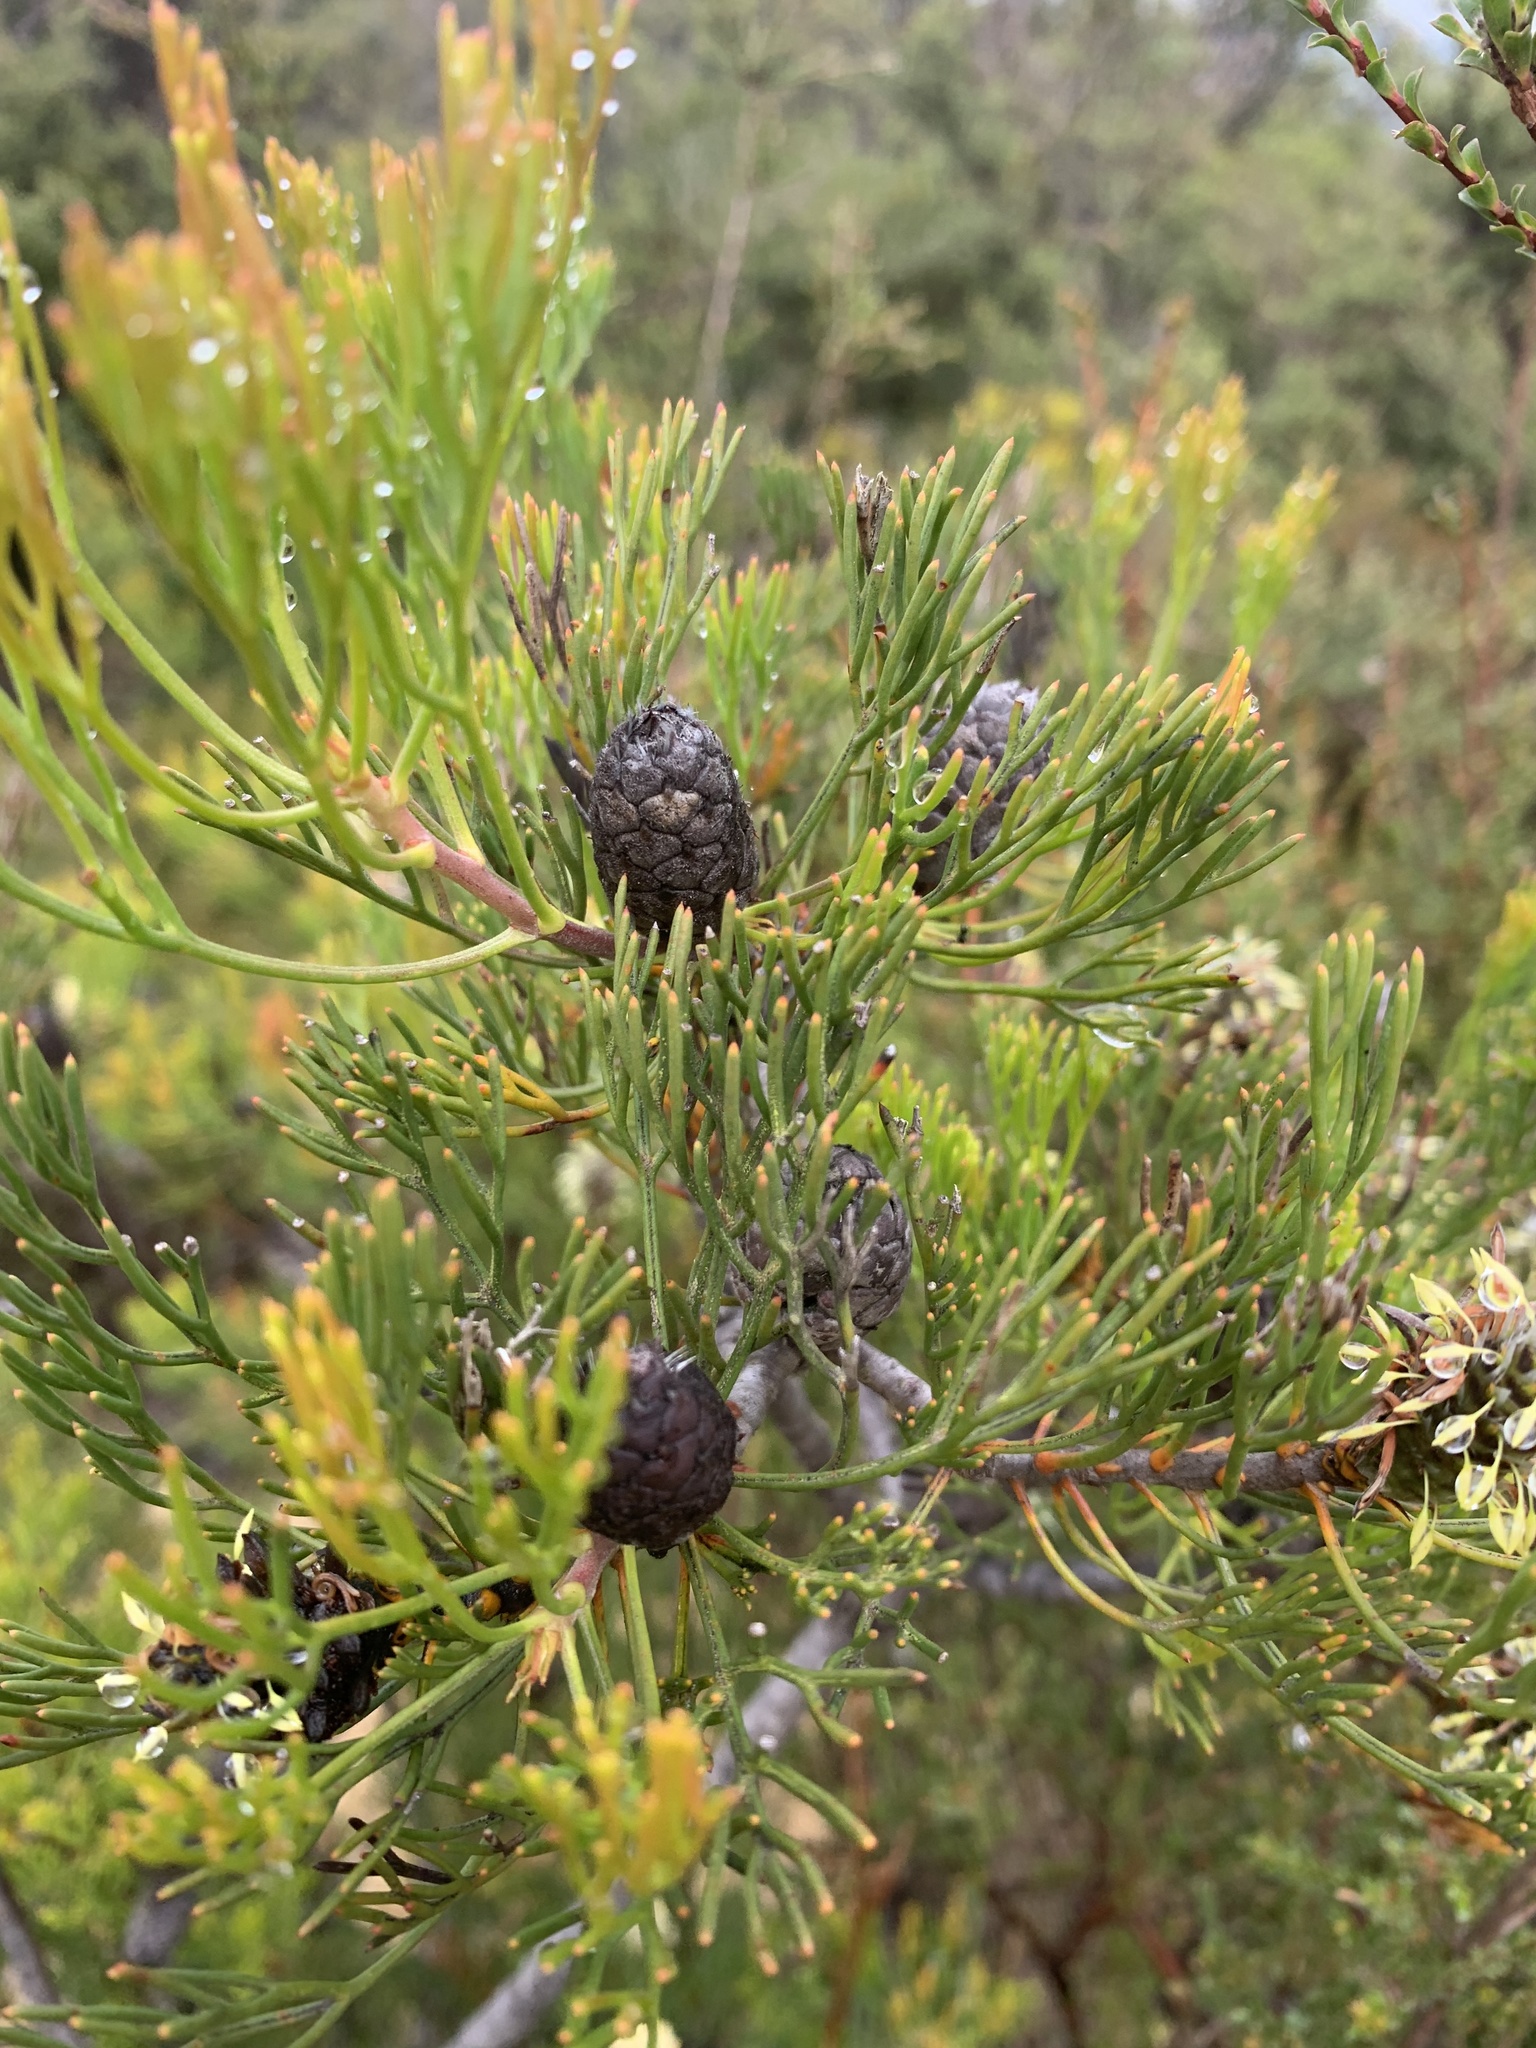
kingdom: Plantae
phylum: Tracheophyta
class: Magnoliopsida
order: Proteales
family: Proteaceae
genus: Petrophile
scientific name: Petrophile pulchella
